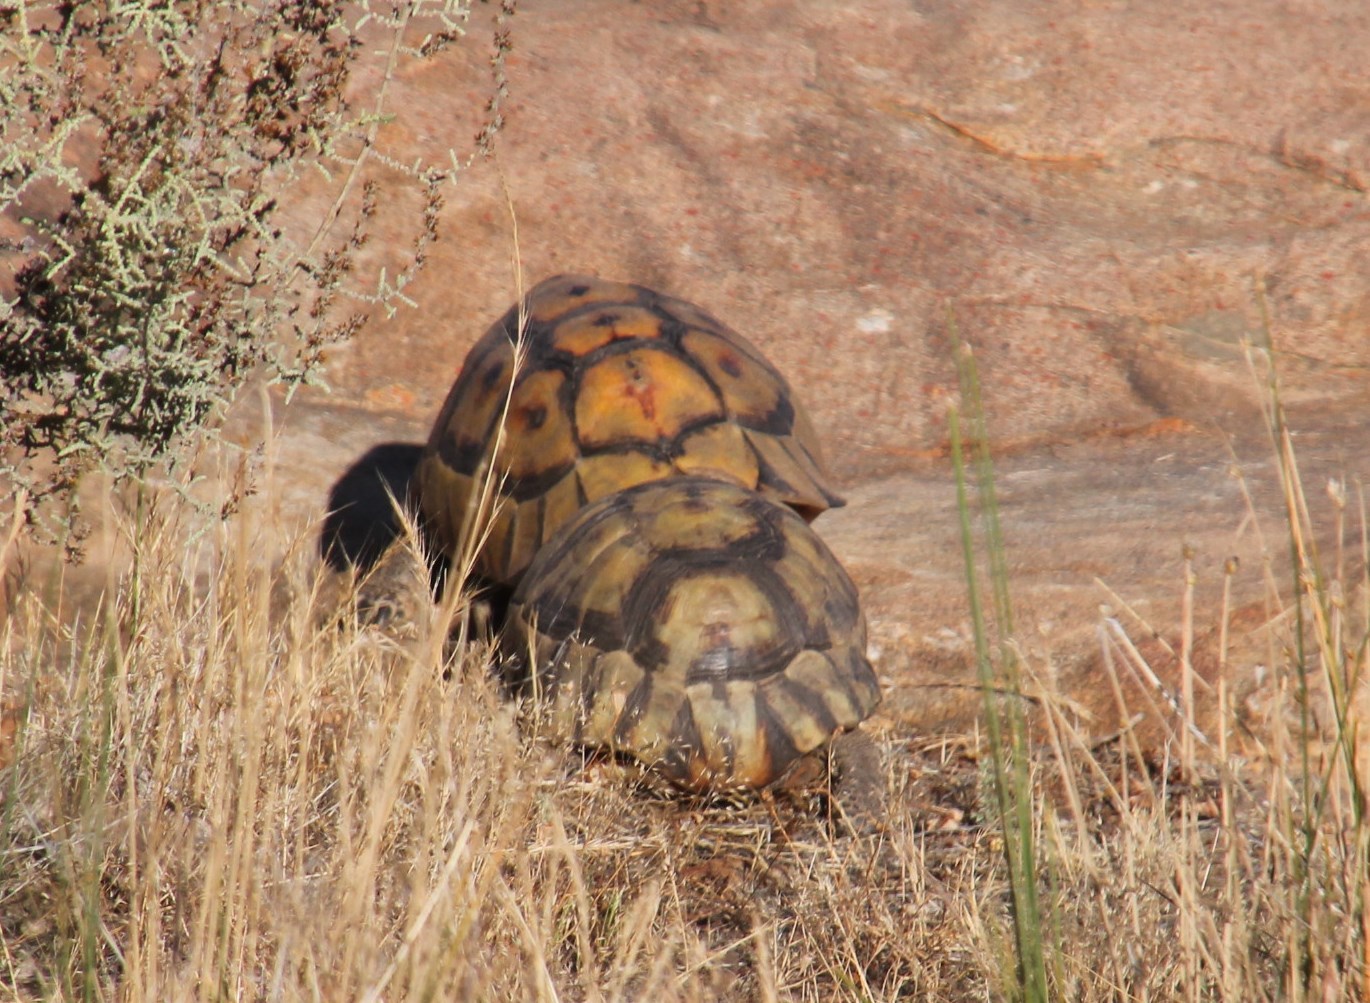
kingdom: Animalia
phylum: Chordata
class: Testudines
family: Testudinidae
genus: Chersina
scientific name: Chersina angulata
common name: South african bowsprit tortoise
